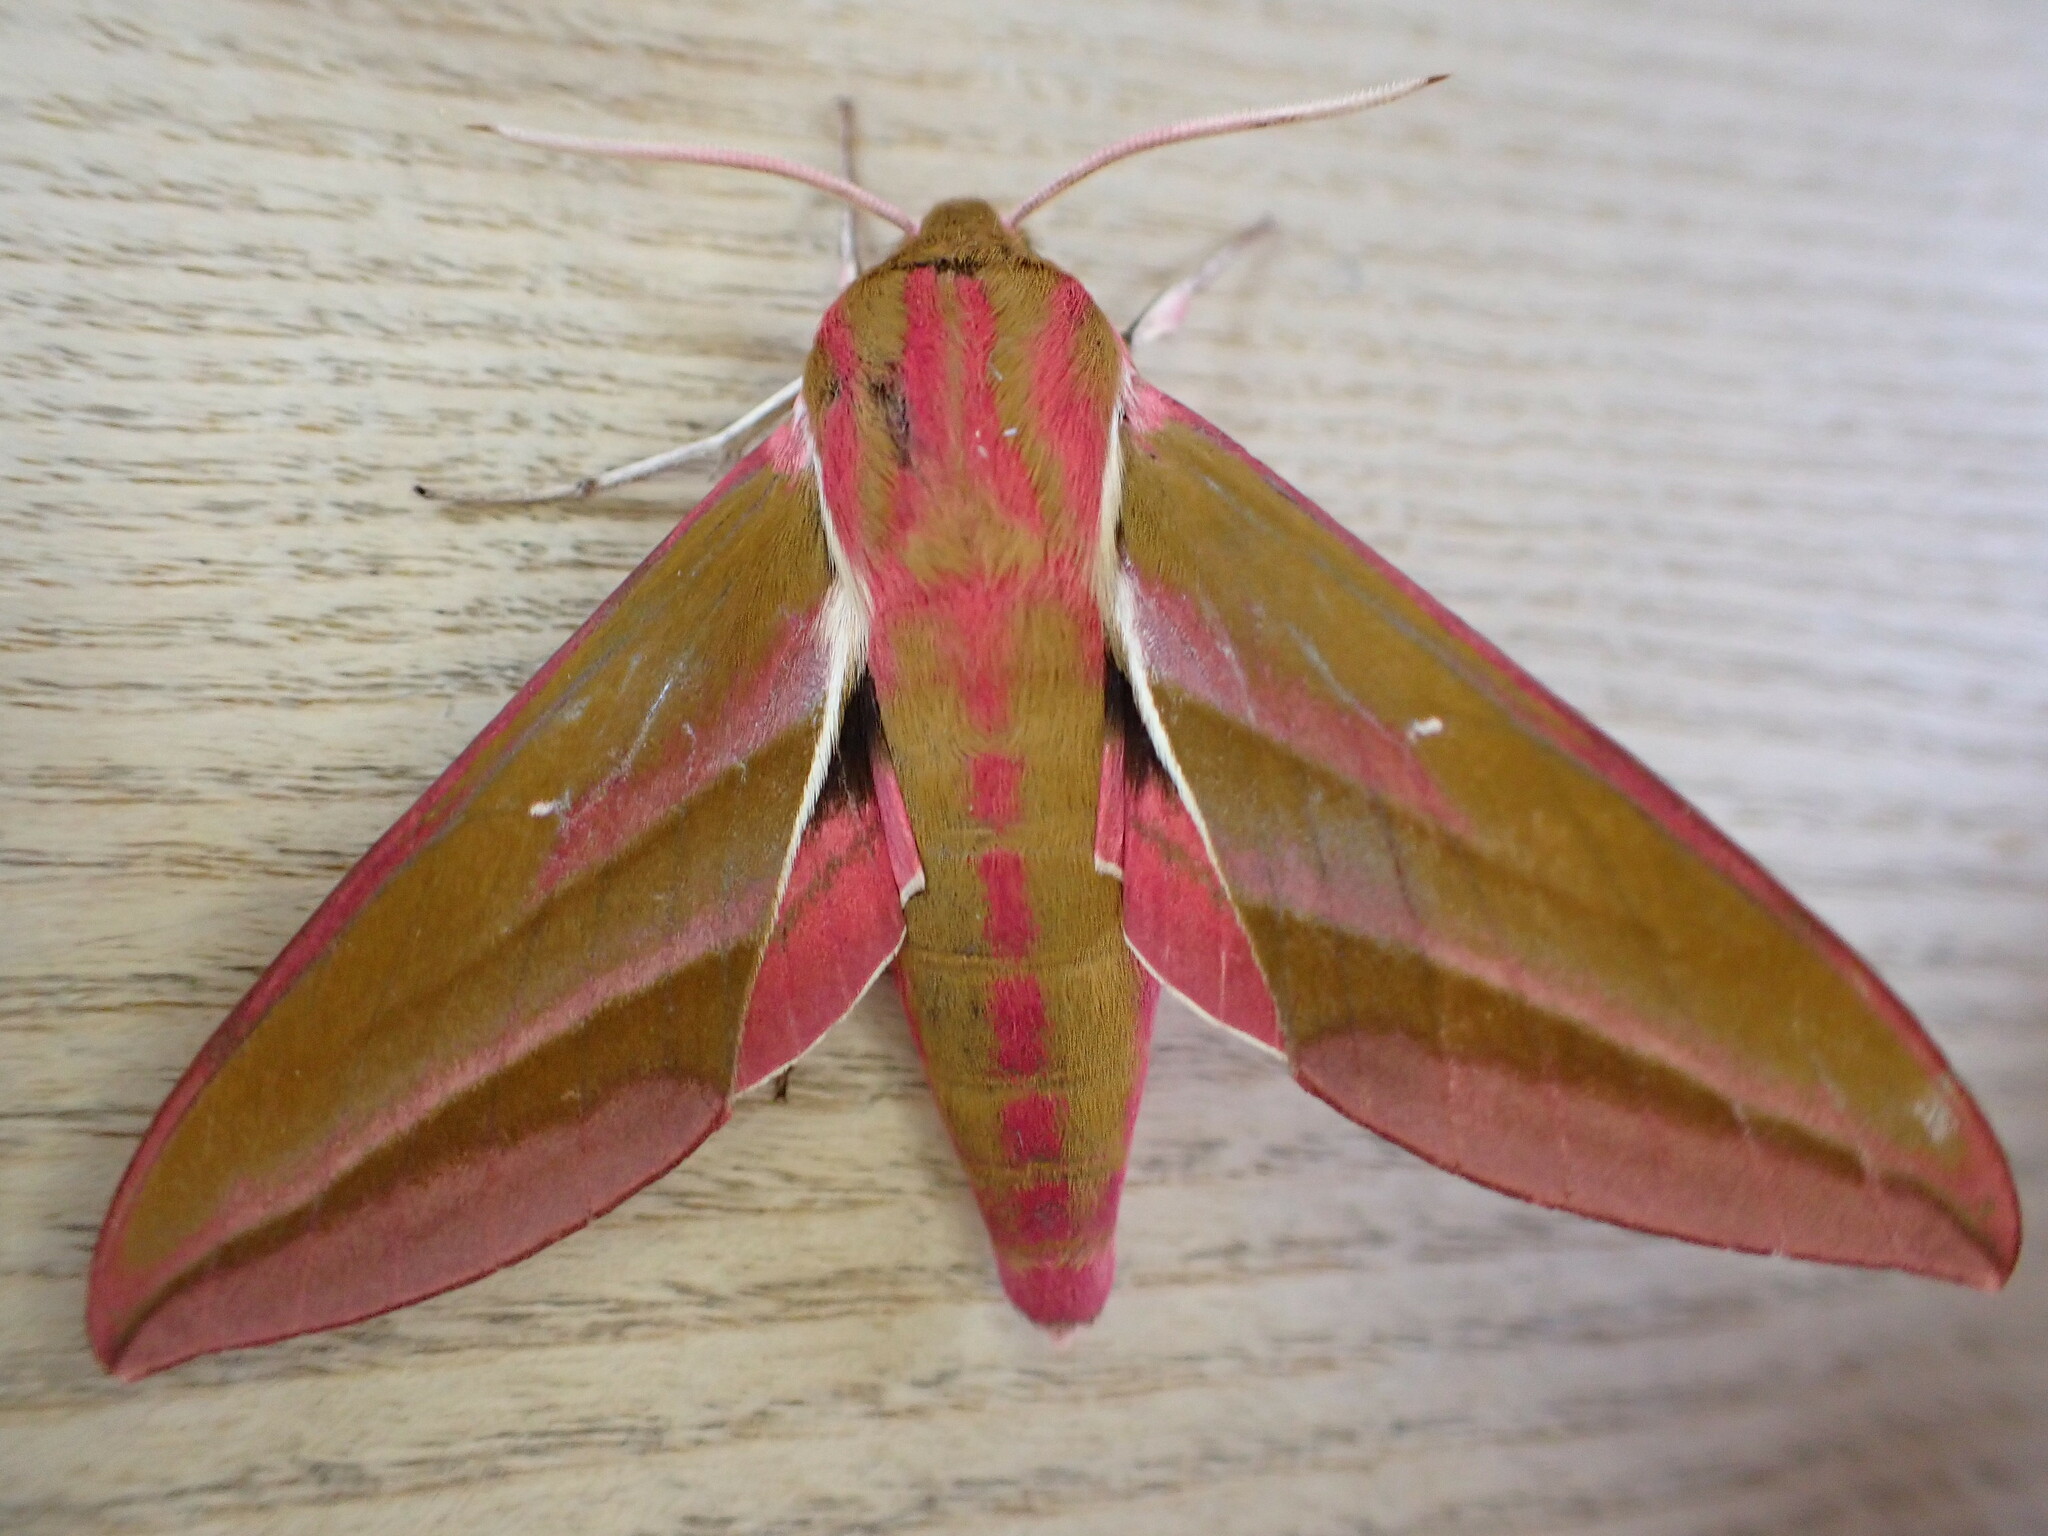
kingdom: Animalia
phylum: Arthropoda
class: Insecta
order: Lepidoptera
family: Sphingidae
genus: Deilephila
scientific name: Deilephila elpenor
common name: Elephant hawk-moth
